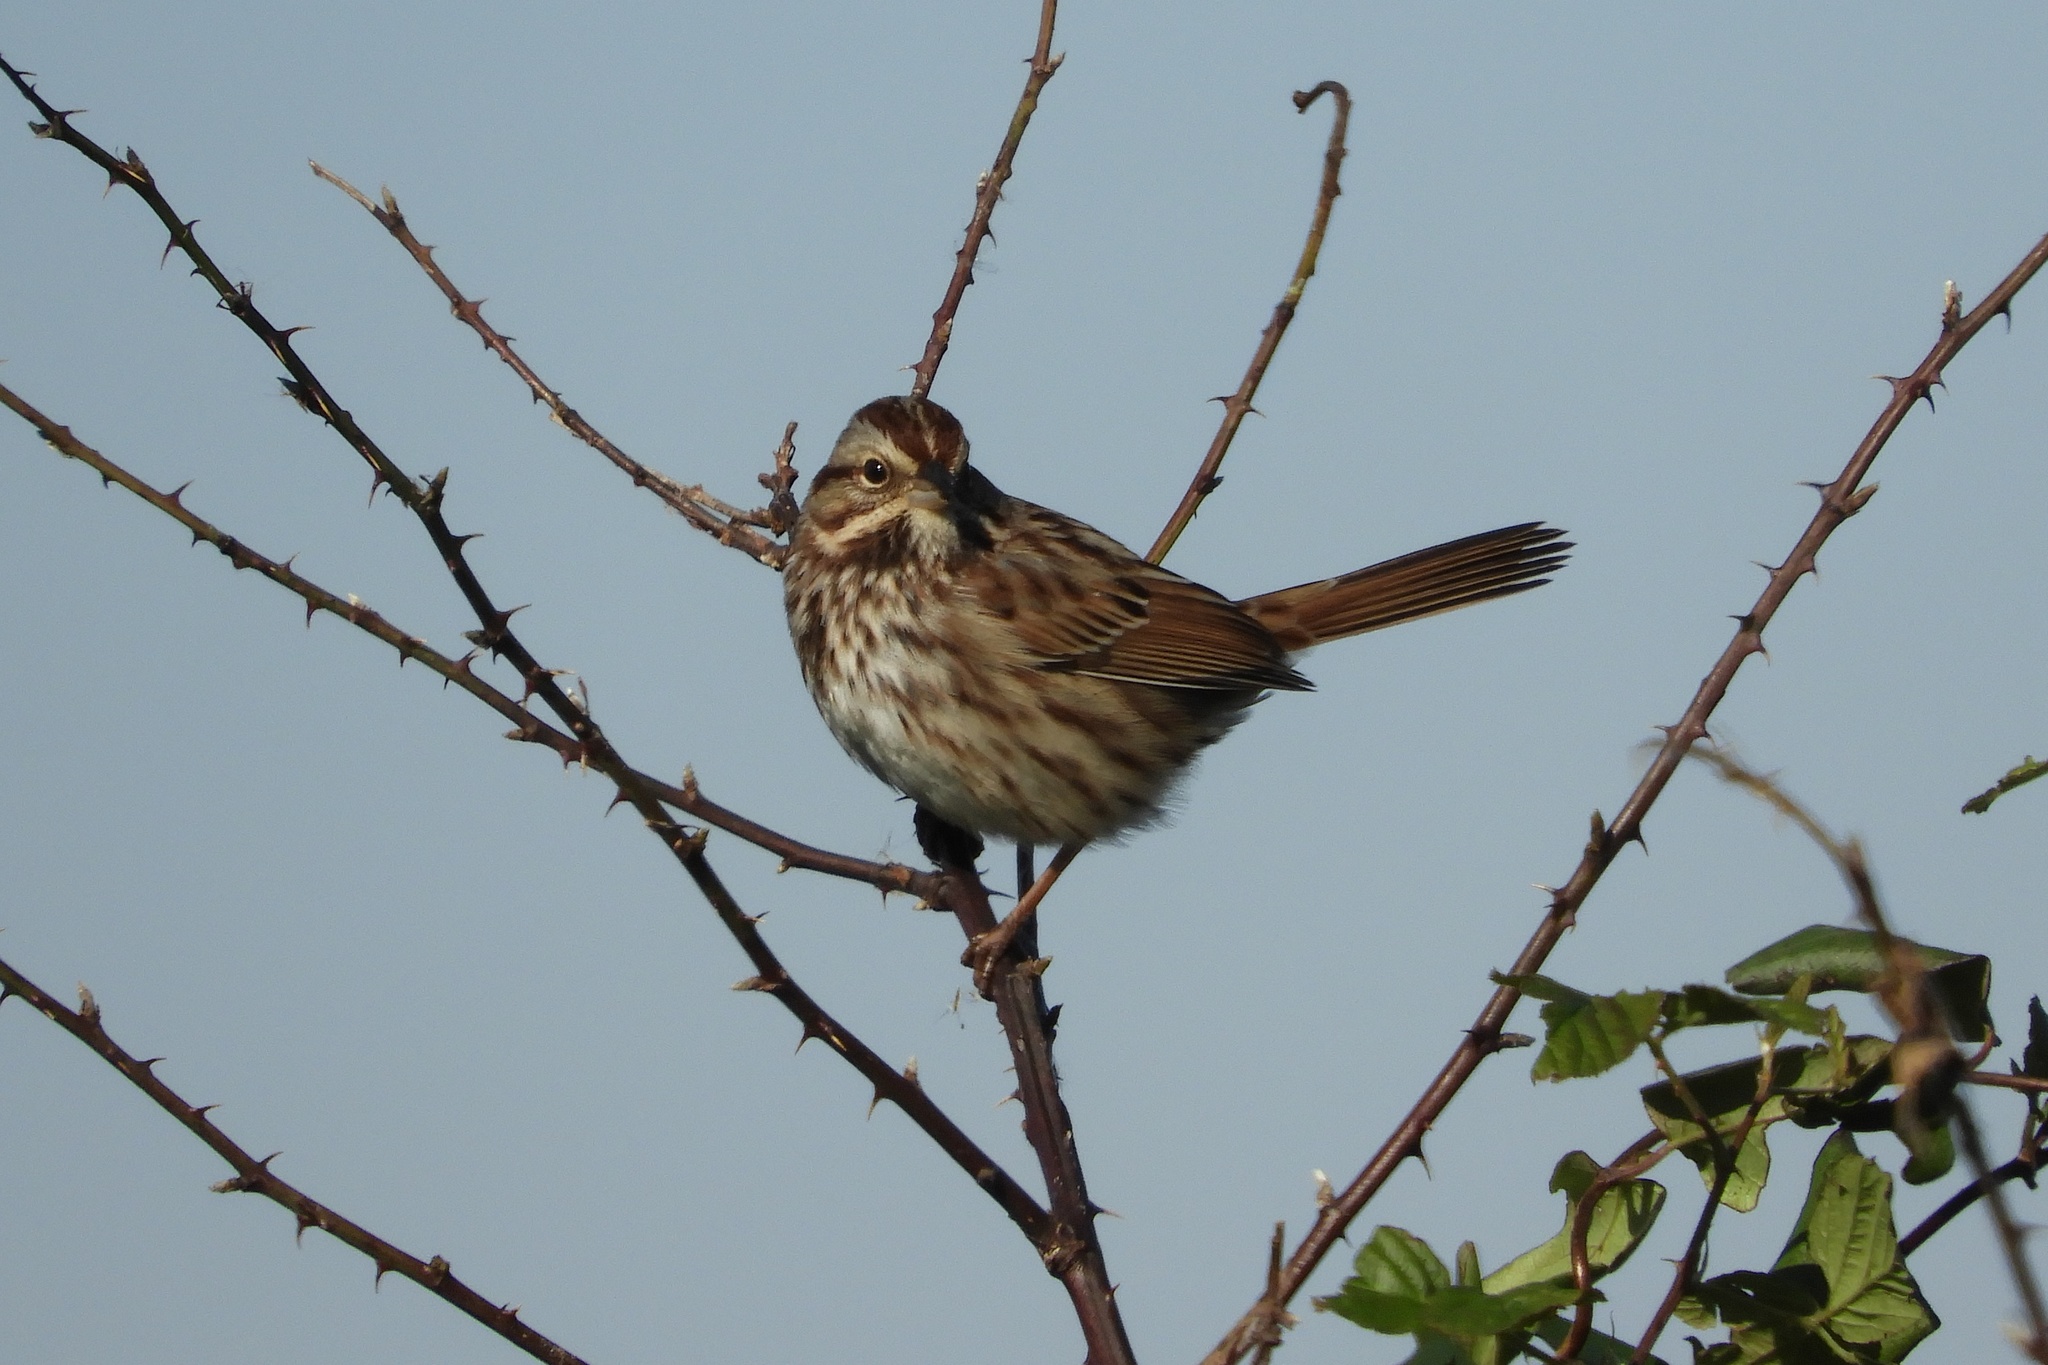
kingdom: Animalia
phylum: Chordata
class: Aves
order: Passeriformes
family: Passerellidae
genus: Melospiza
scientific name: Melospiza melodia
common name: Song sparrow
